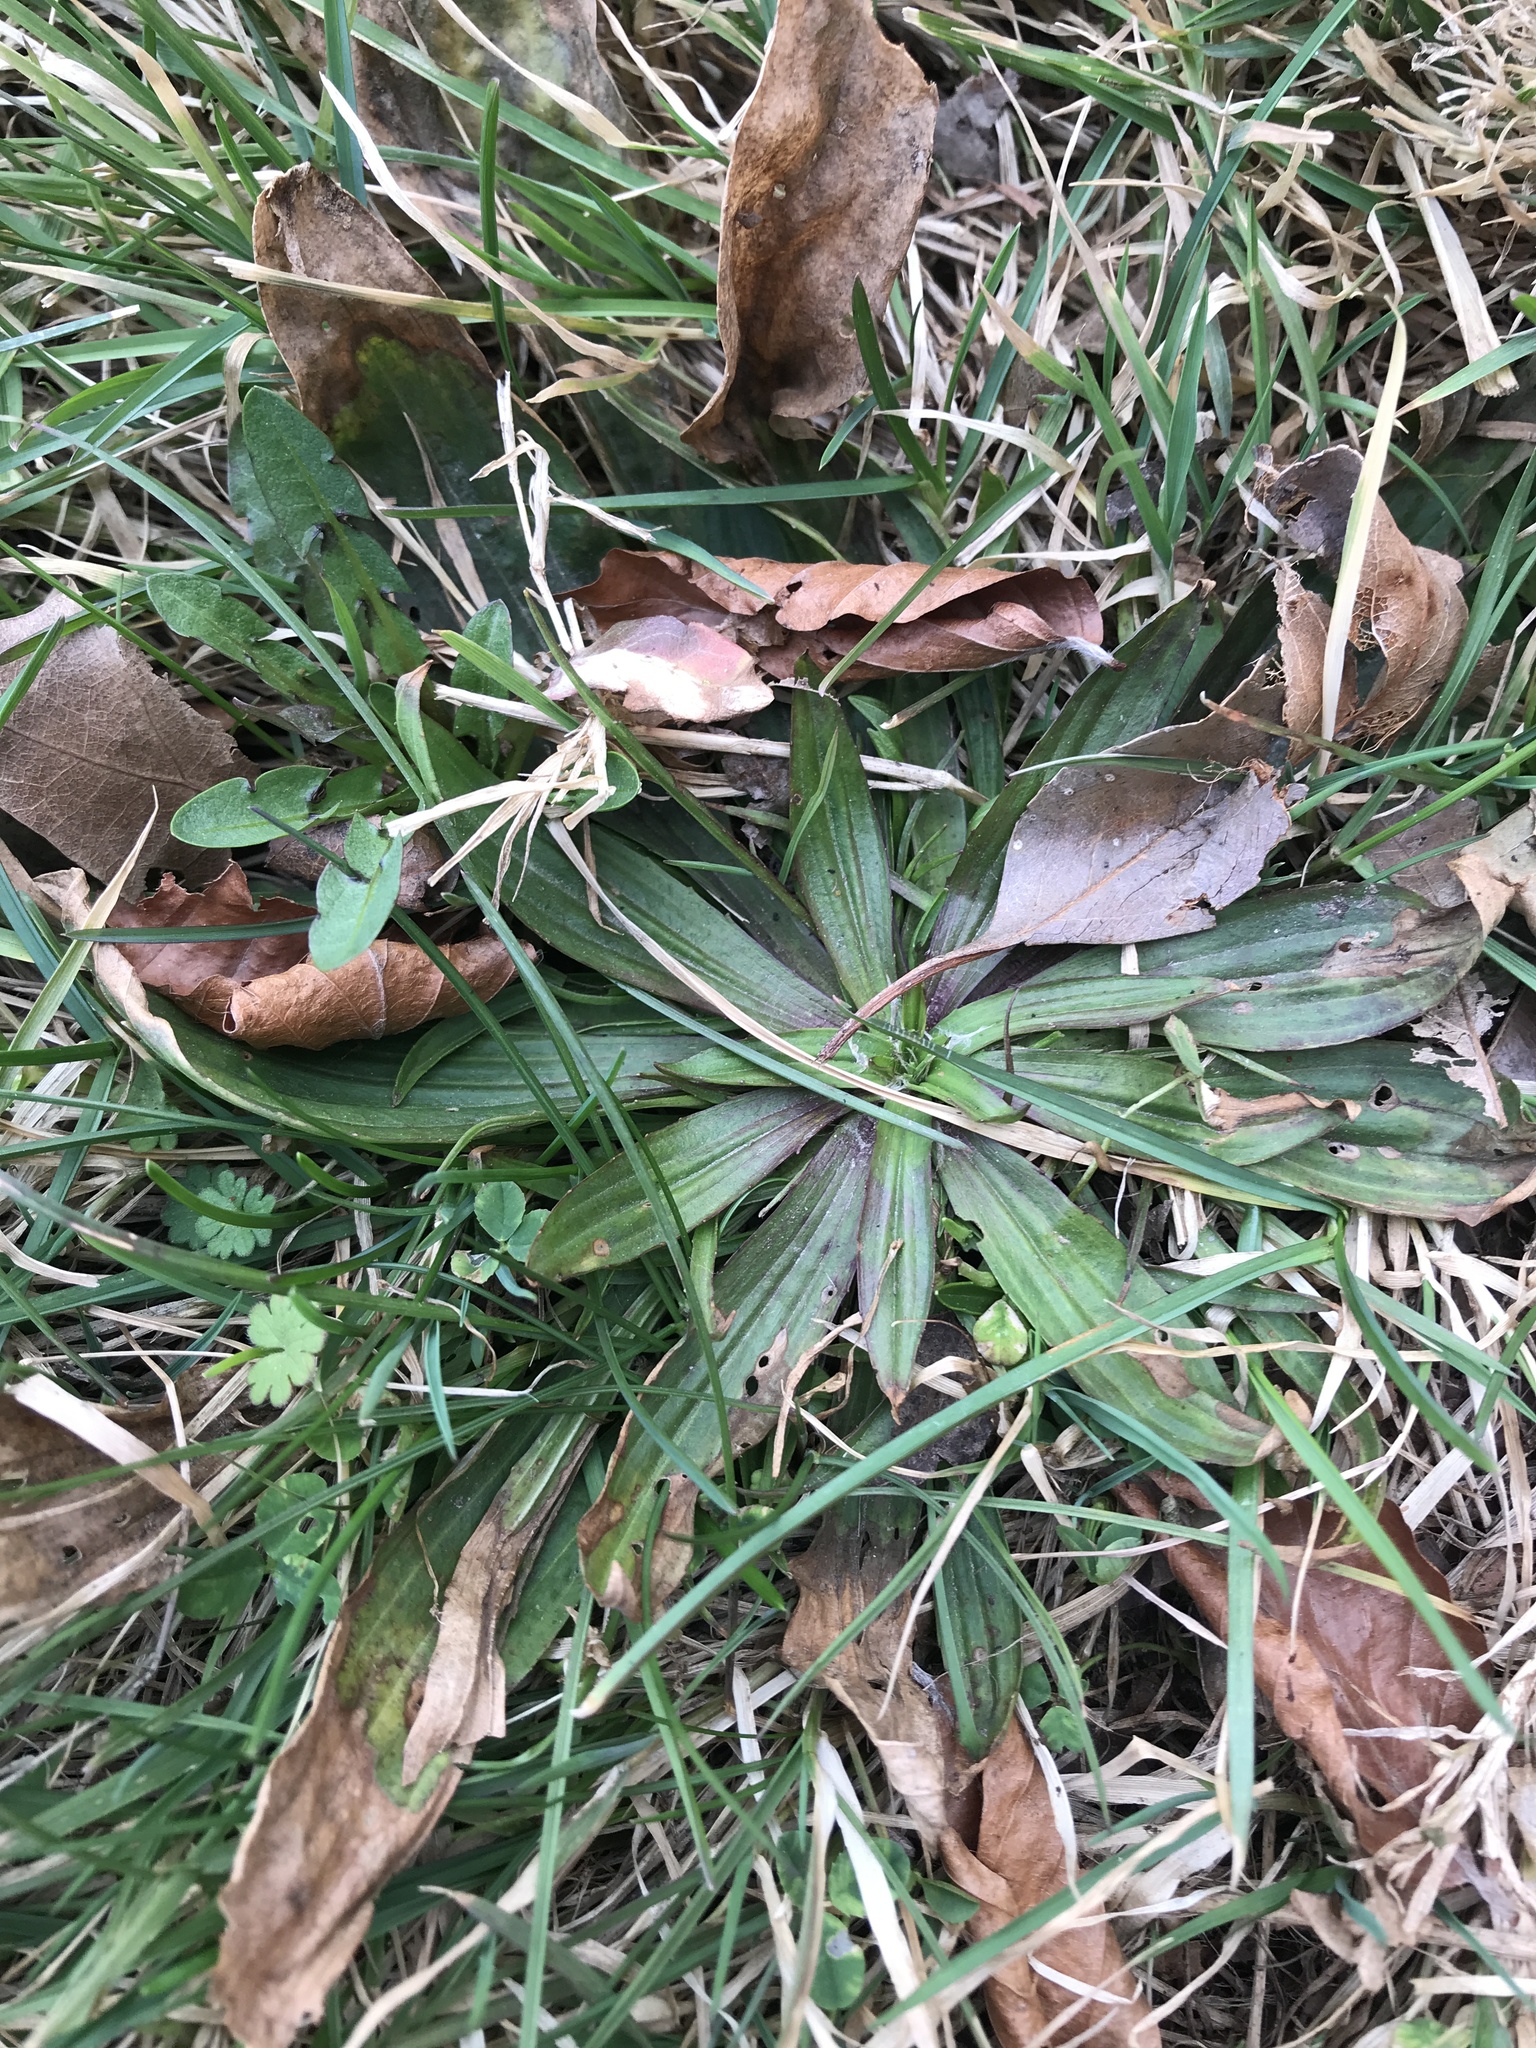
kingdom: Plantae
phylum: Tracheophyta
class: Magnoliopsida
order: Lamiales
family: Plantaginaceae
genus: Plantago
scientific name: Plantago lanceolata
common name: Ribwort plantain
